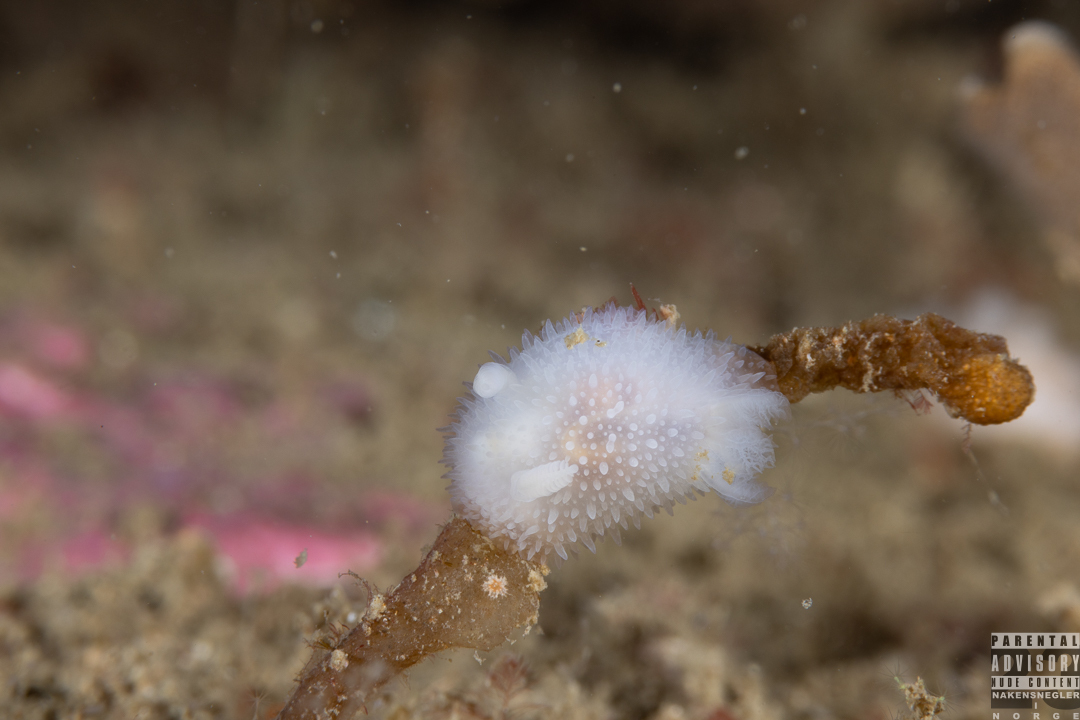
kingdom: Animalia
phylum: Mollusca
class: Gastropoda
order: Nudibranchia
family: Onchidorididae
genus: Acanthodoris
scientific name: Acanthodoris pilosa
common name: Hairy spiny doris
